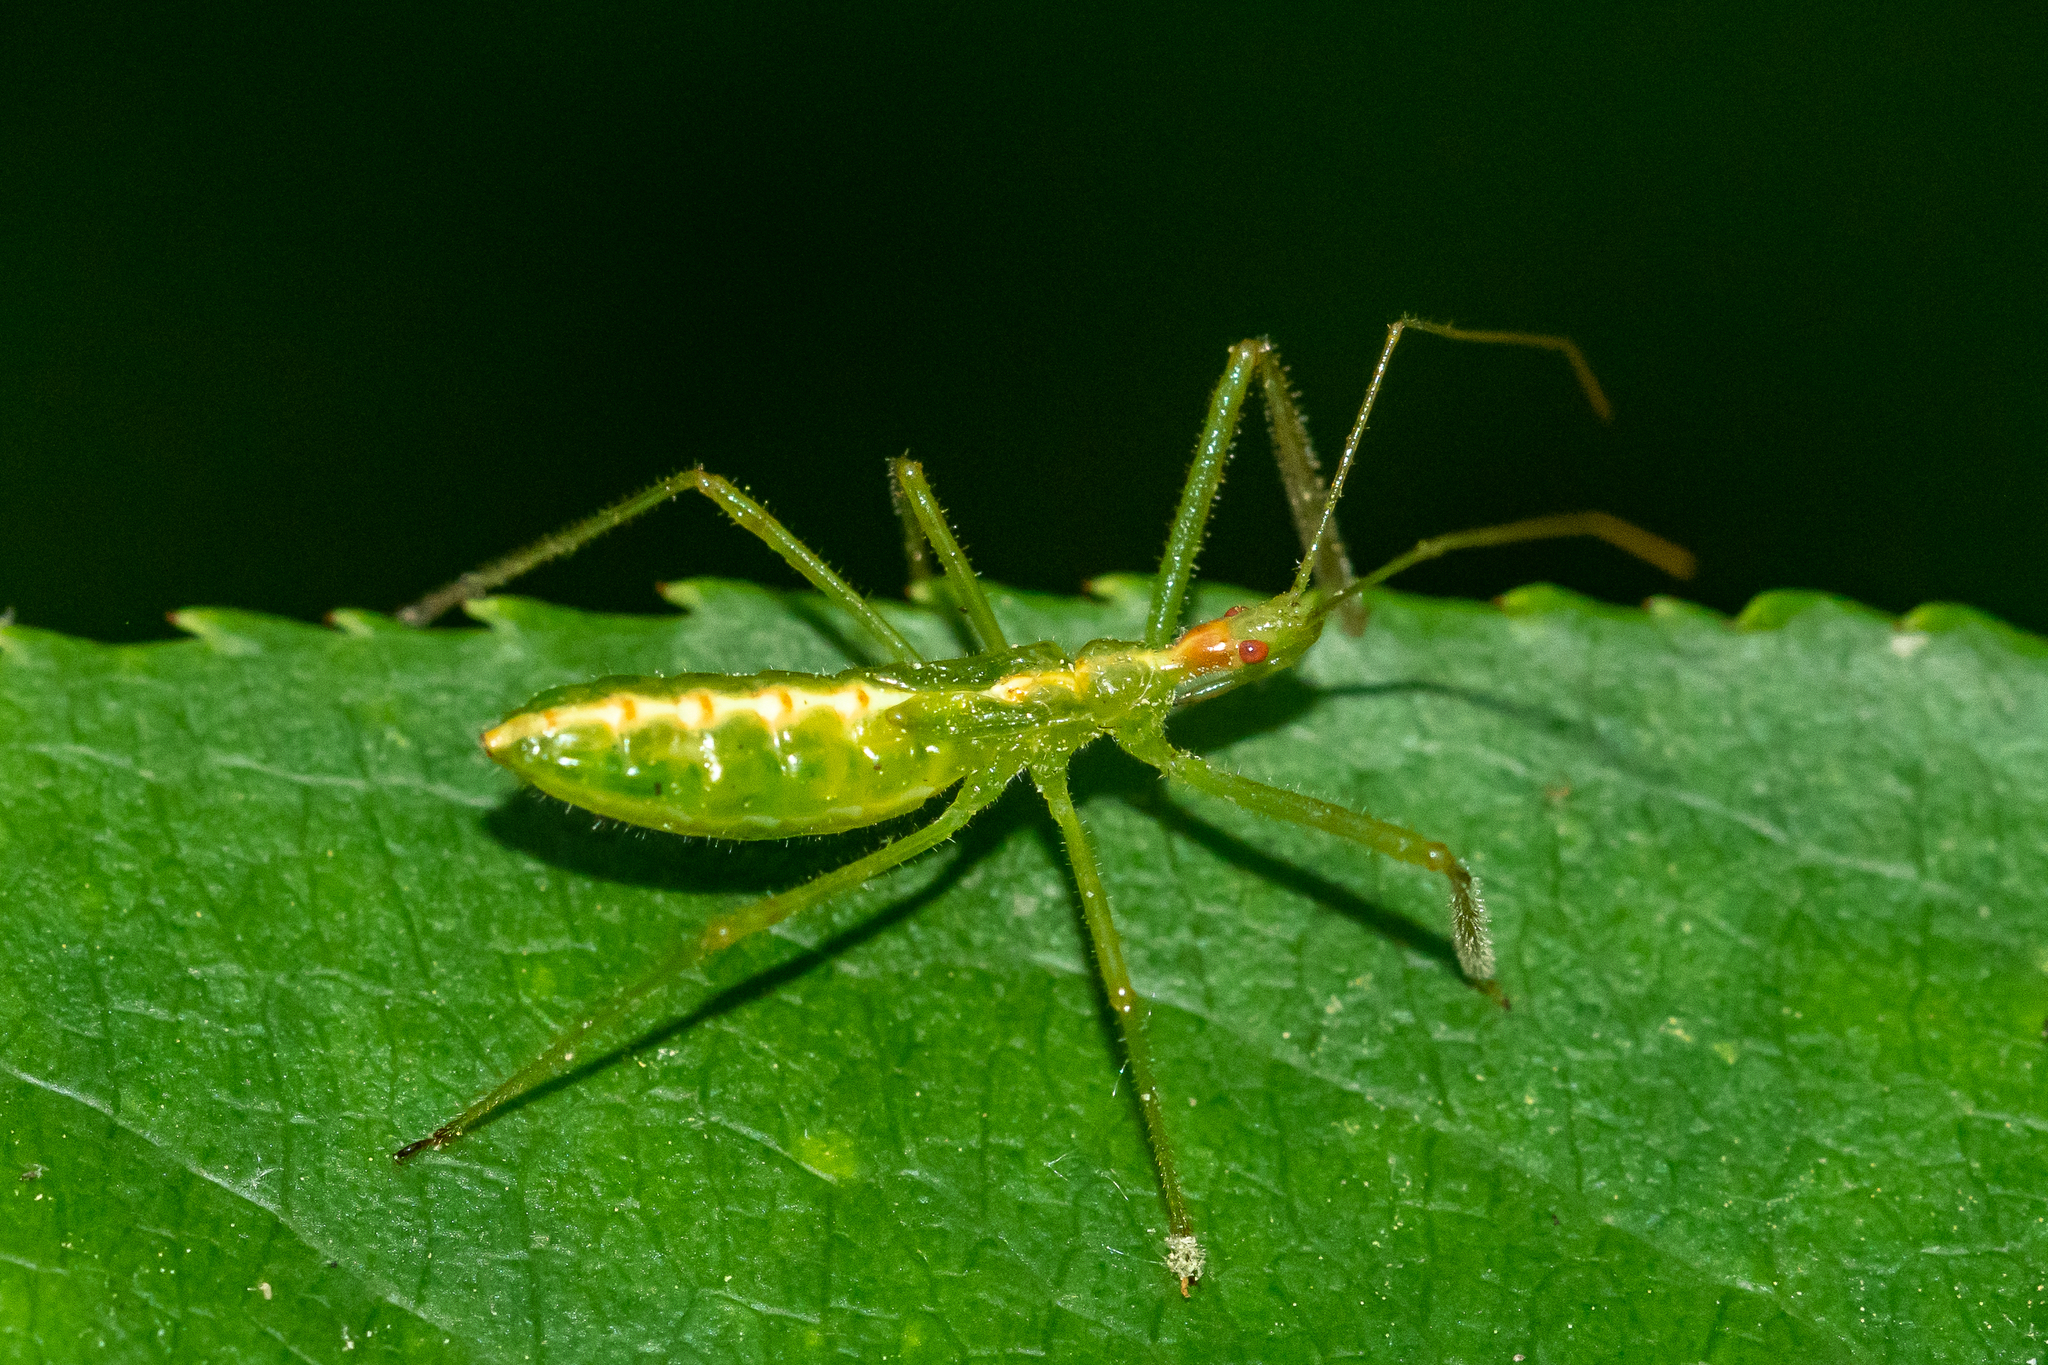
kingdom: Animalia
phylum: Arthropoda
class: Insecta
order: Hemiptera
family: Reduviidae
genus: Zelus
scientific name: Zelus luridus
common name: Pale green assassin bug
